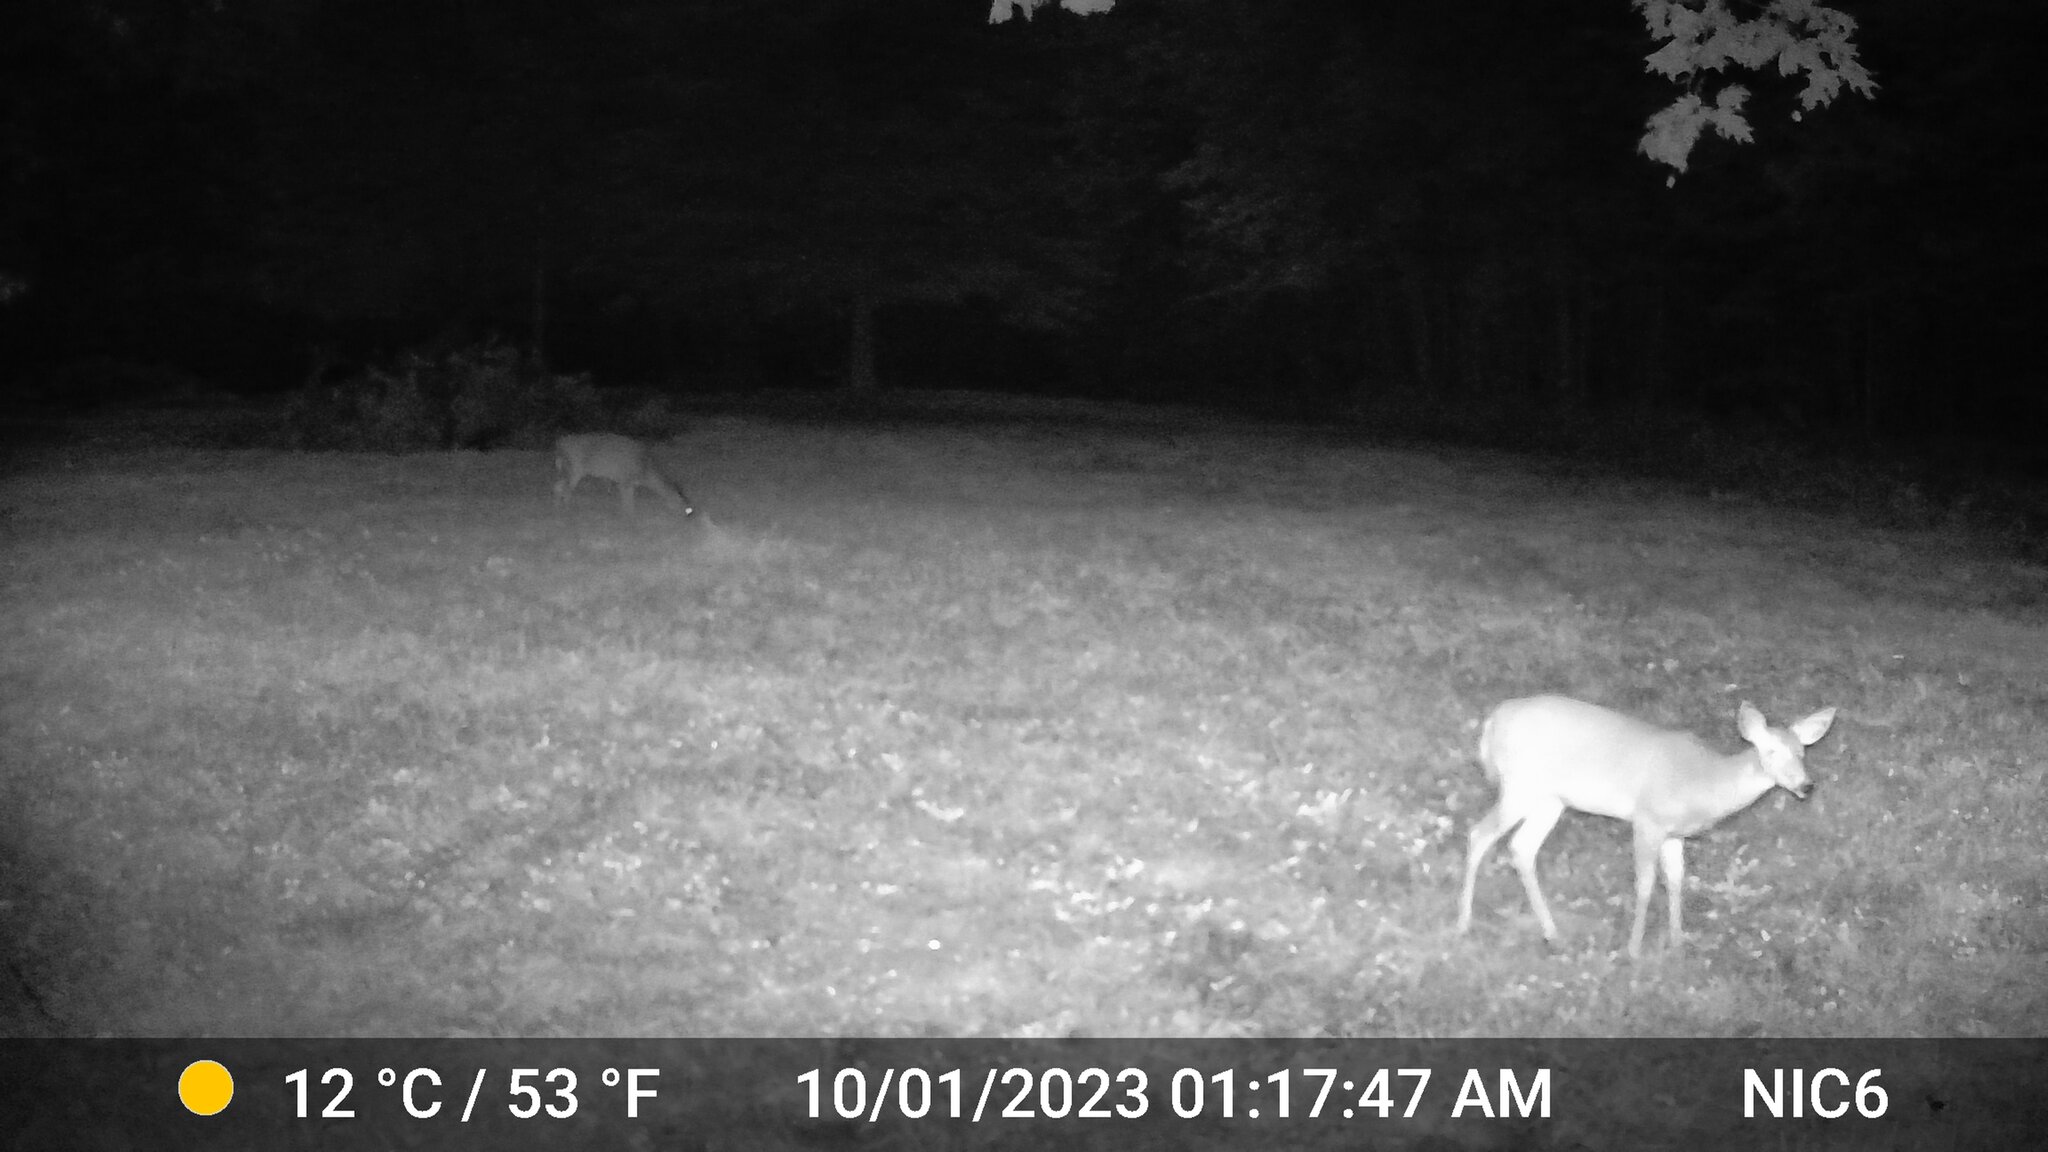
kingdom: Animalia
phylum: Chordata
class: Mammalia
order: Artiodactyla
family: Cervidae
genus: Odocoileus
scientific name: Odocoileus virginianus
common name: White-tailed deer
